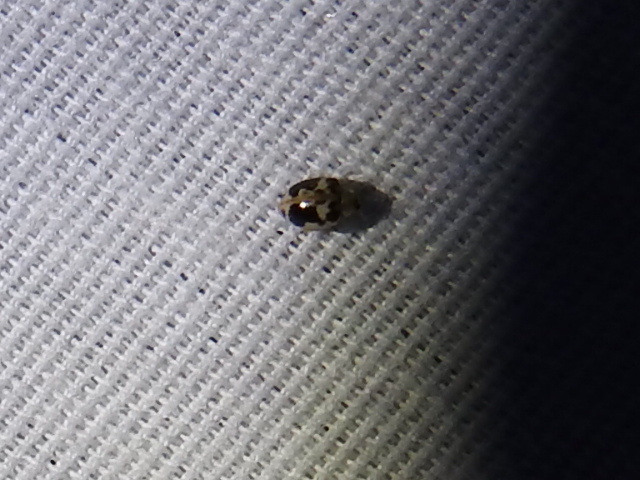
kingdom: Animalia
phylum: Arthropoda
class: Insecta
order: Coleoptera
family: Coccinellidae
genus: Psyllobora
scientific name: Psyllobora renifer
